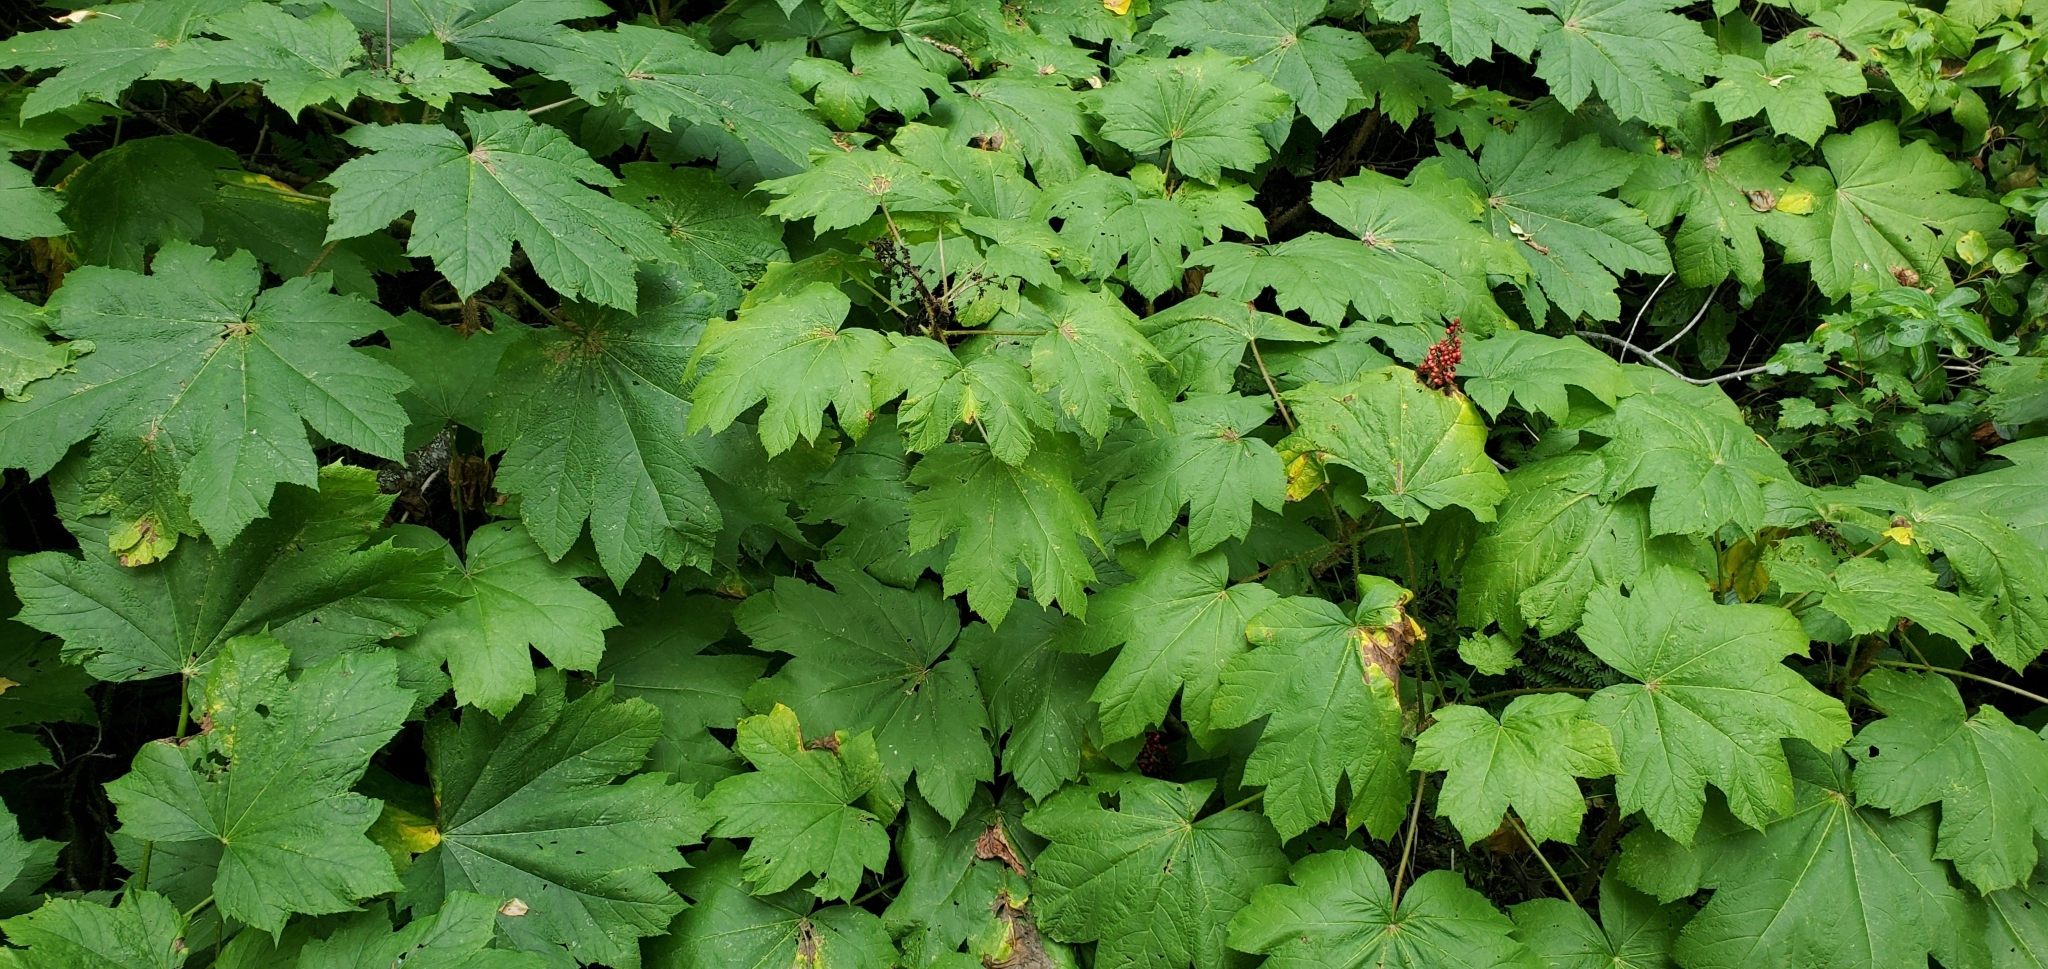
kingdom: Plantae
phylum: Tracheophyta
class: Magnoliopsida
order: Apiales
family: Araliaceae
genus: Oplopanax
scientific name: Oplopanax horridus
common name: Devil's walking-stick
